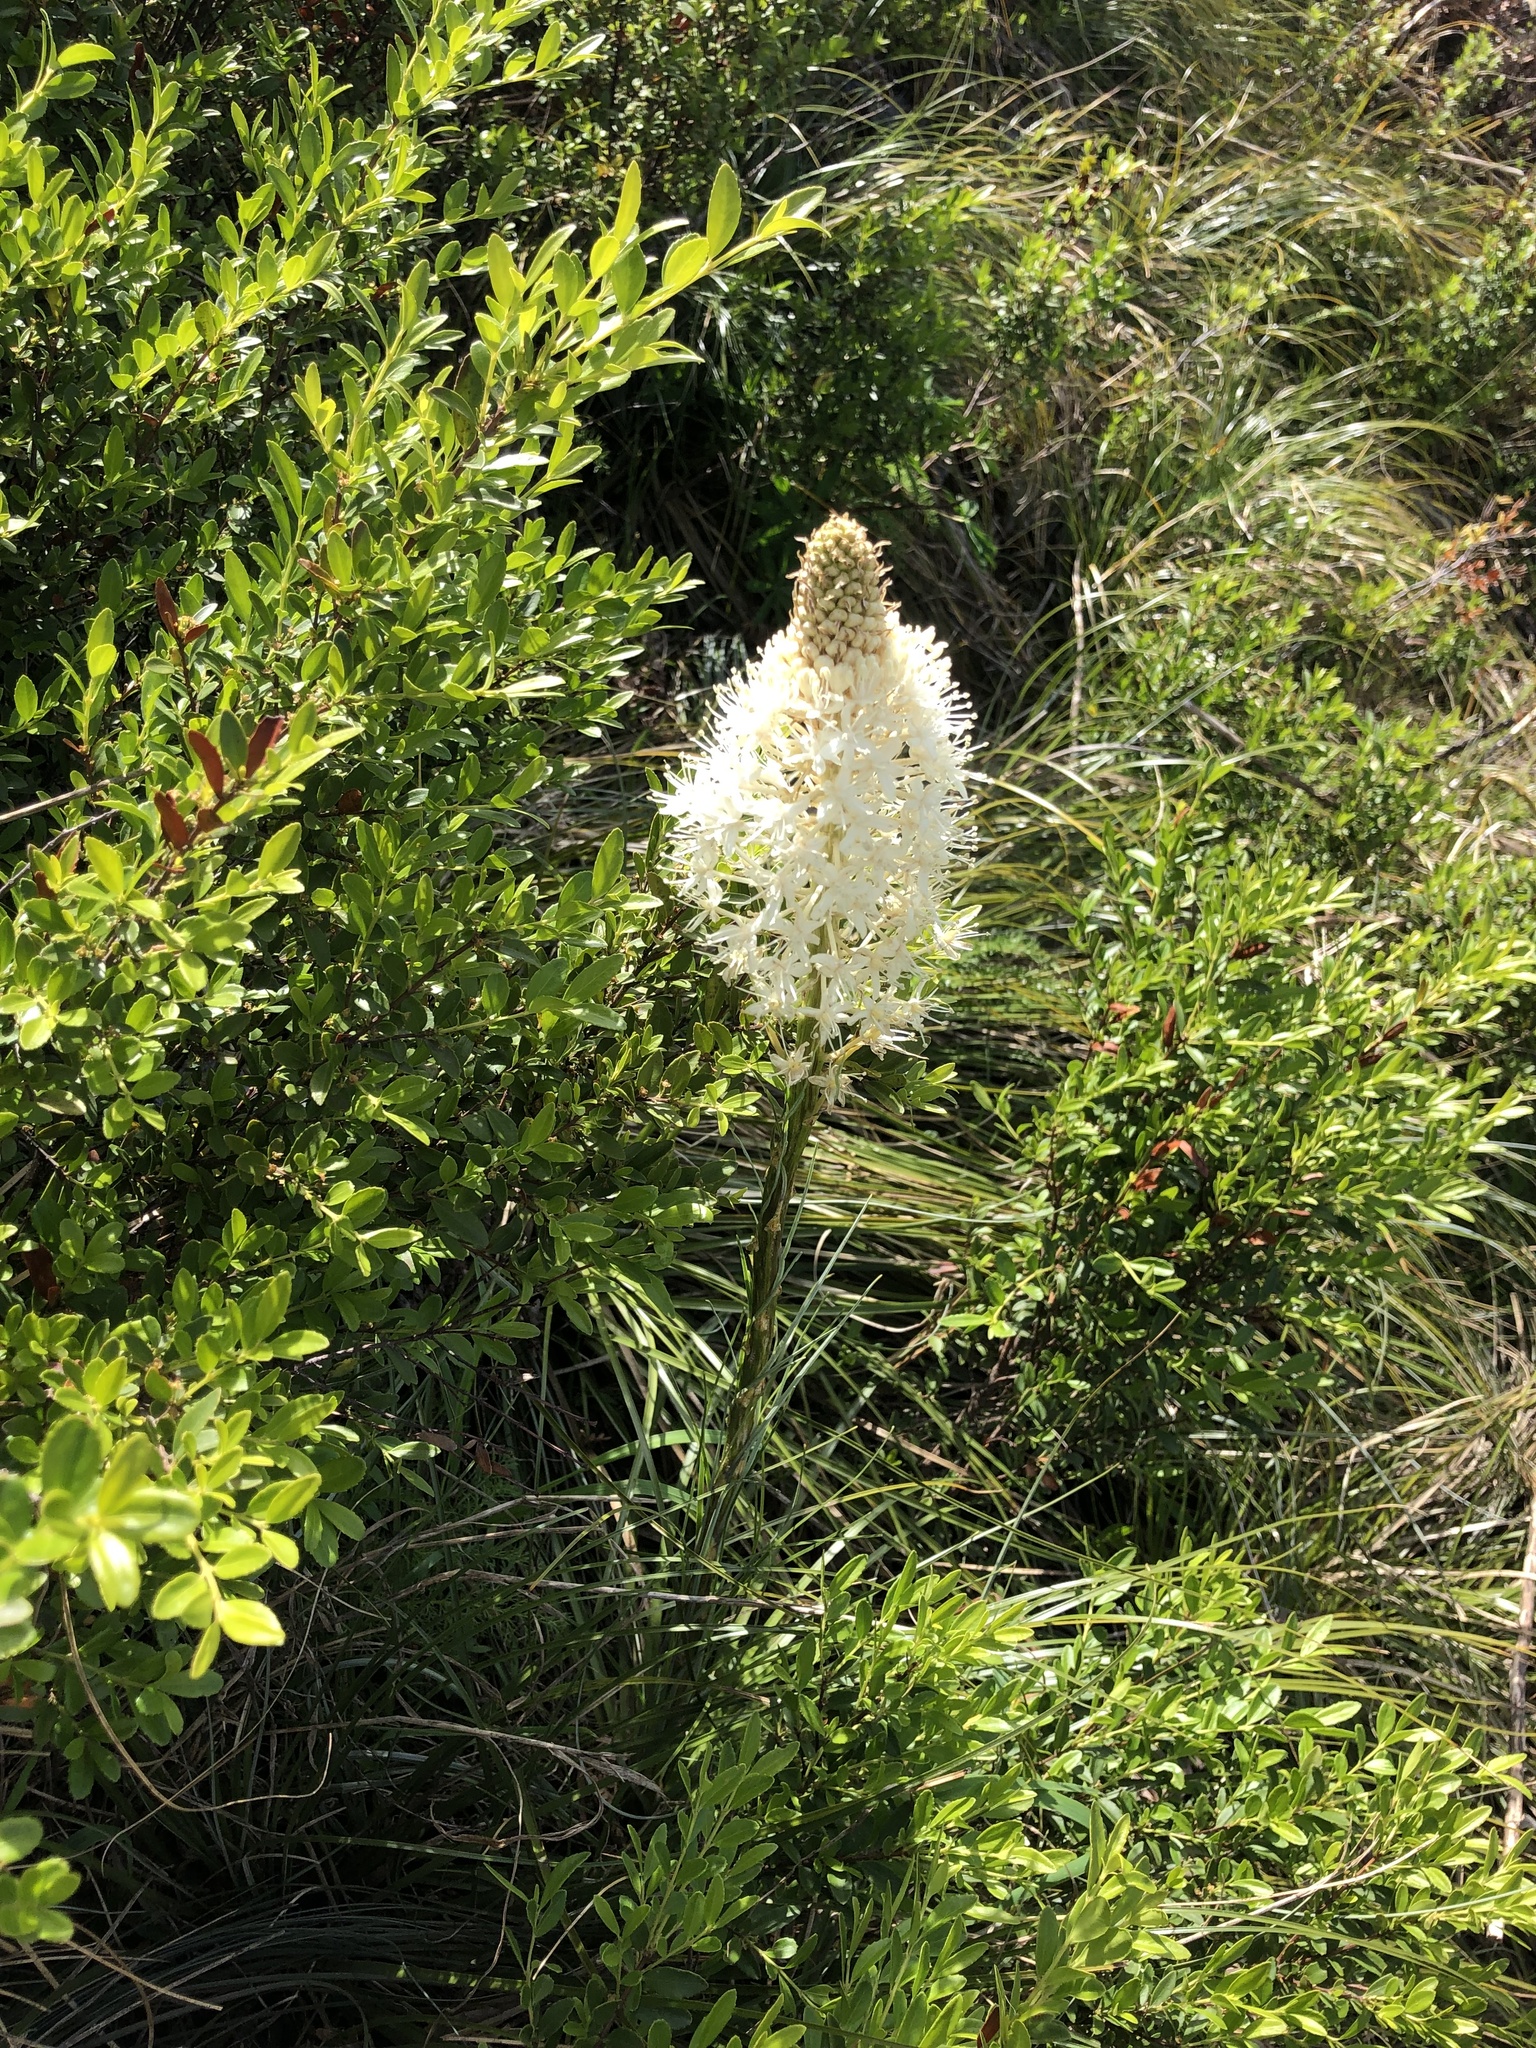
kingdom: Plantae
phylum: Tracheophyta
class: Liliopsida
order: Liliales
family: Melanthiaceae
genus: Xerophyllum
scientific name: Xerophyllum tenax
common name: Bear-grass
